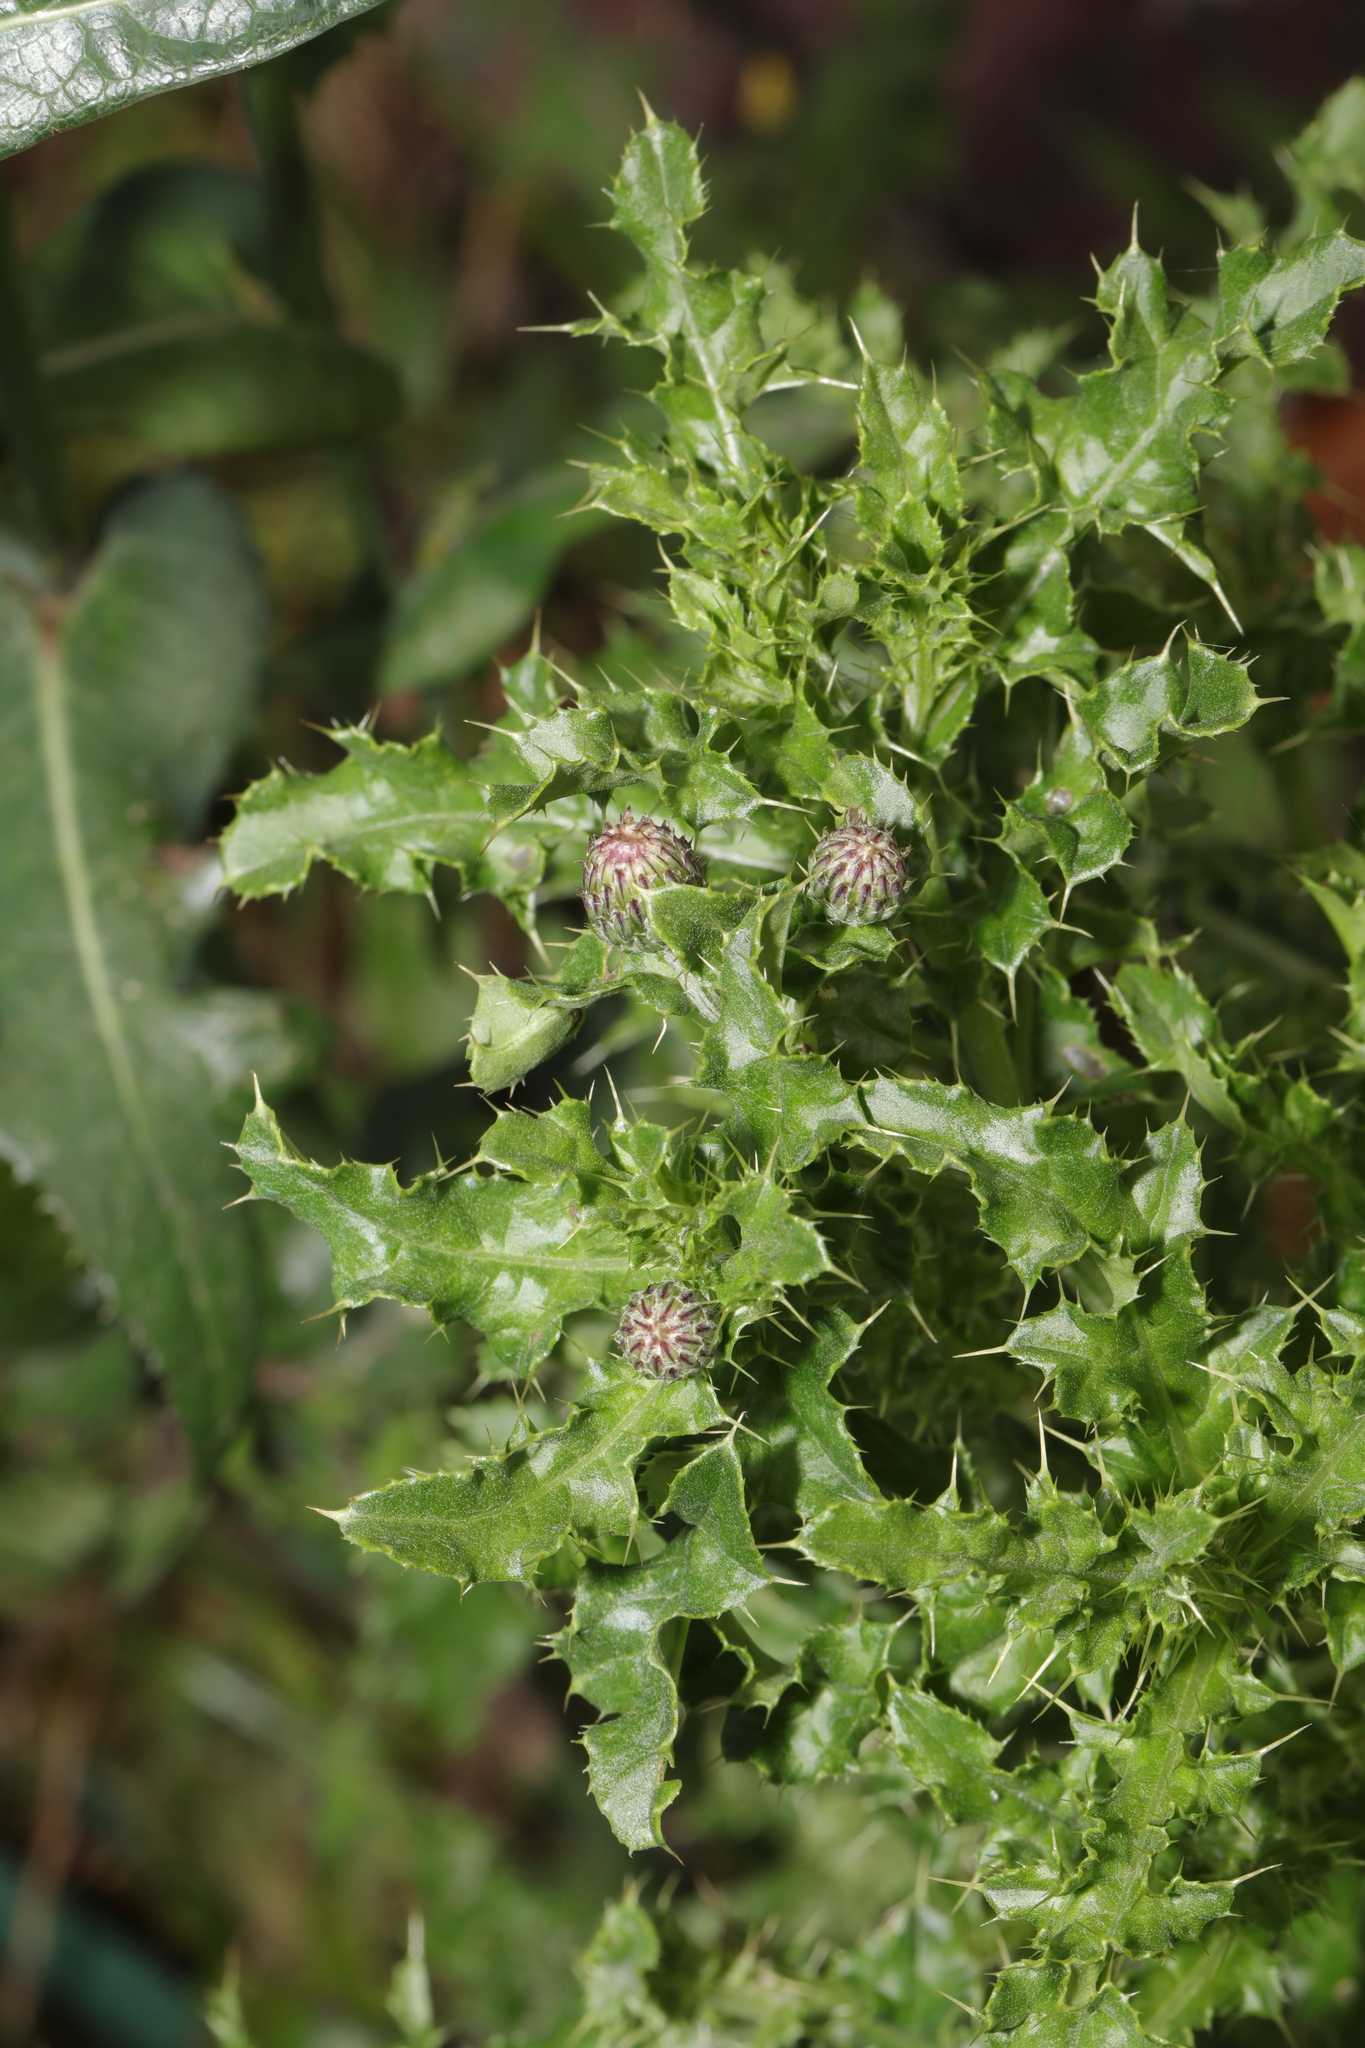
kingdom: Plantae
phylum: Tracheophyta
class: Magnoliopsida
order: Asterales
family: Asteraceae
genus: Cirsium
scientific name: Cirsium arvense
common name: Creeping thistle
